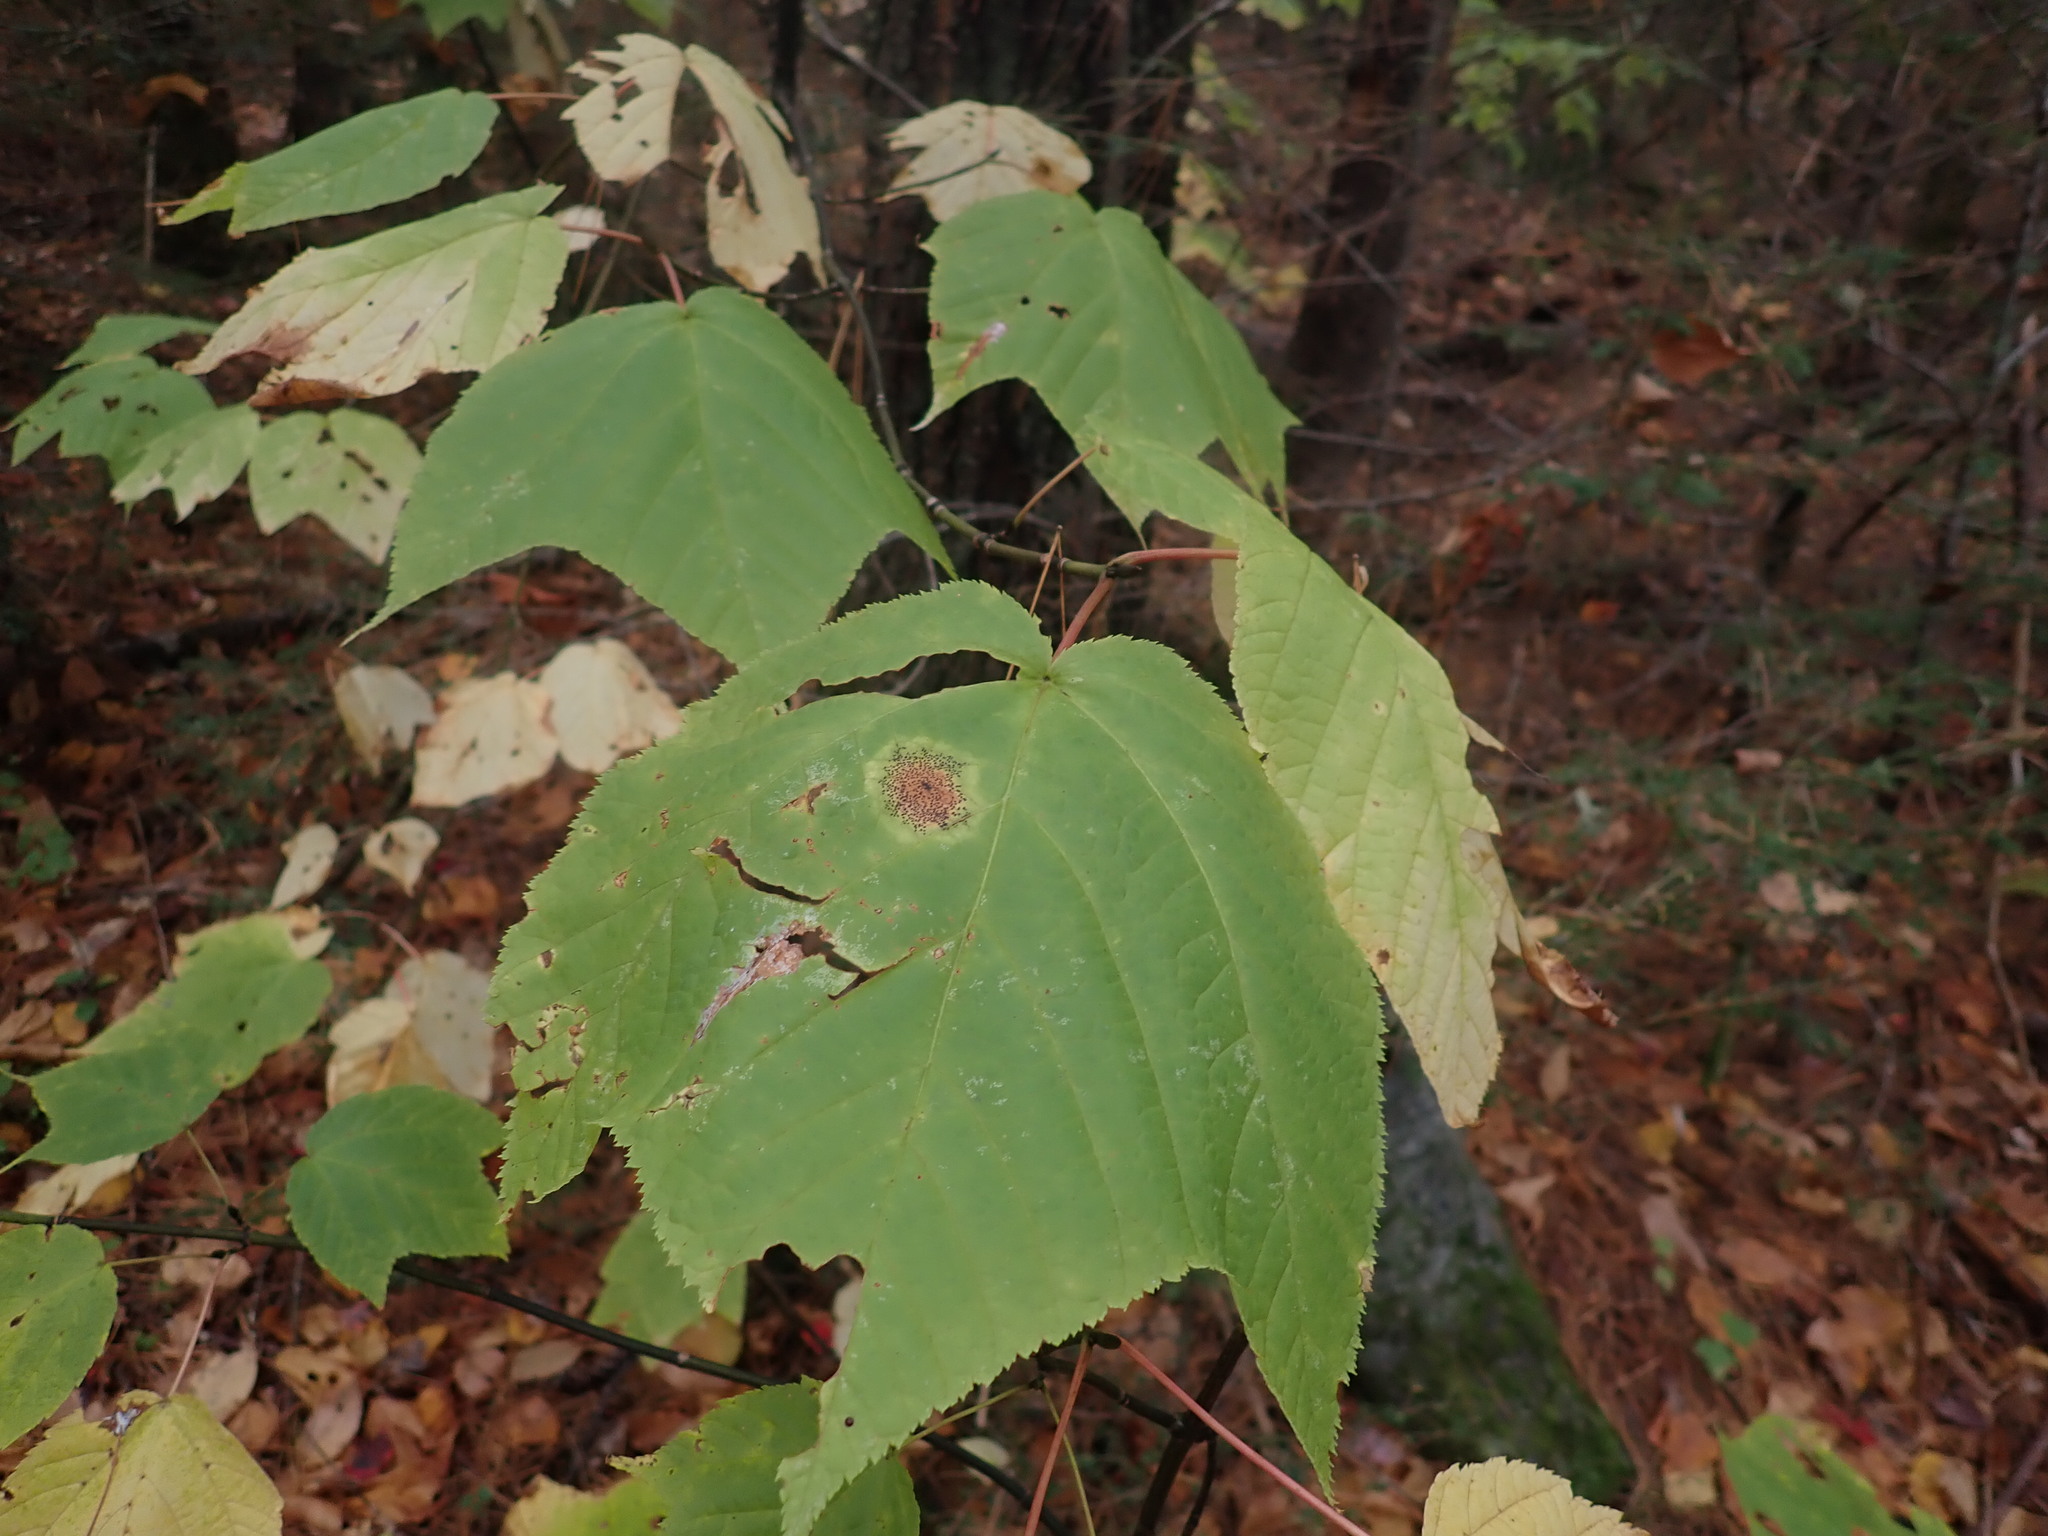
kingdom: Plantae
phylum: Tracheophyta
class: Magnoliopsida
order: Sapindales
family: Sapindaceae
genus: Acer
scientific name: Acer pensylvanicum
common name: Moosewood
